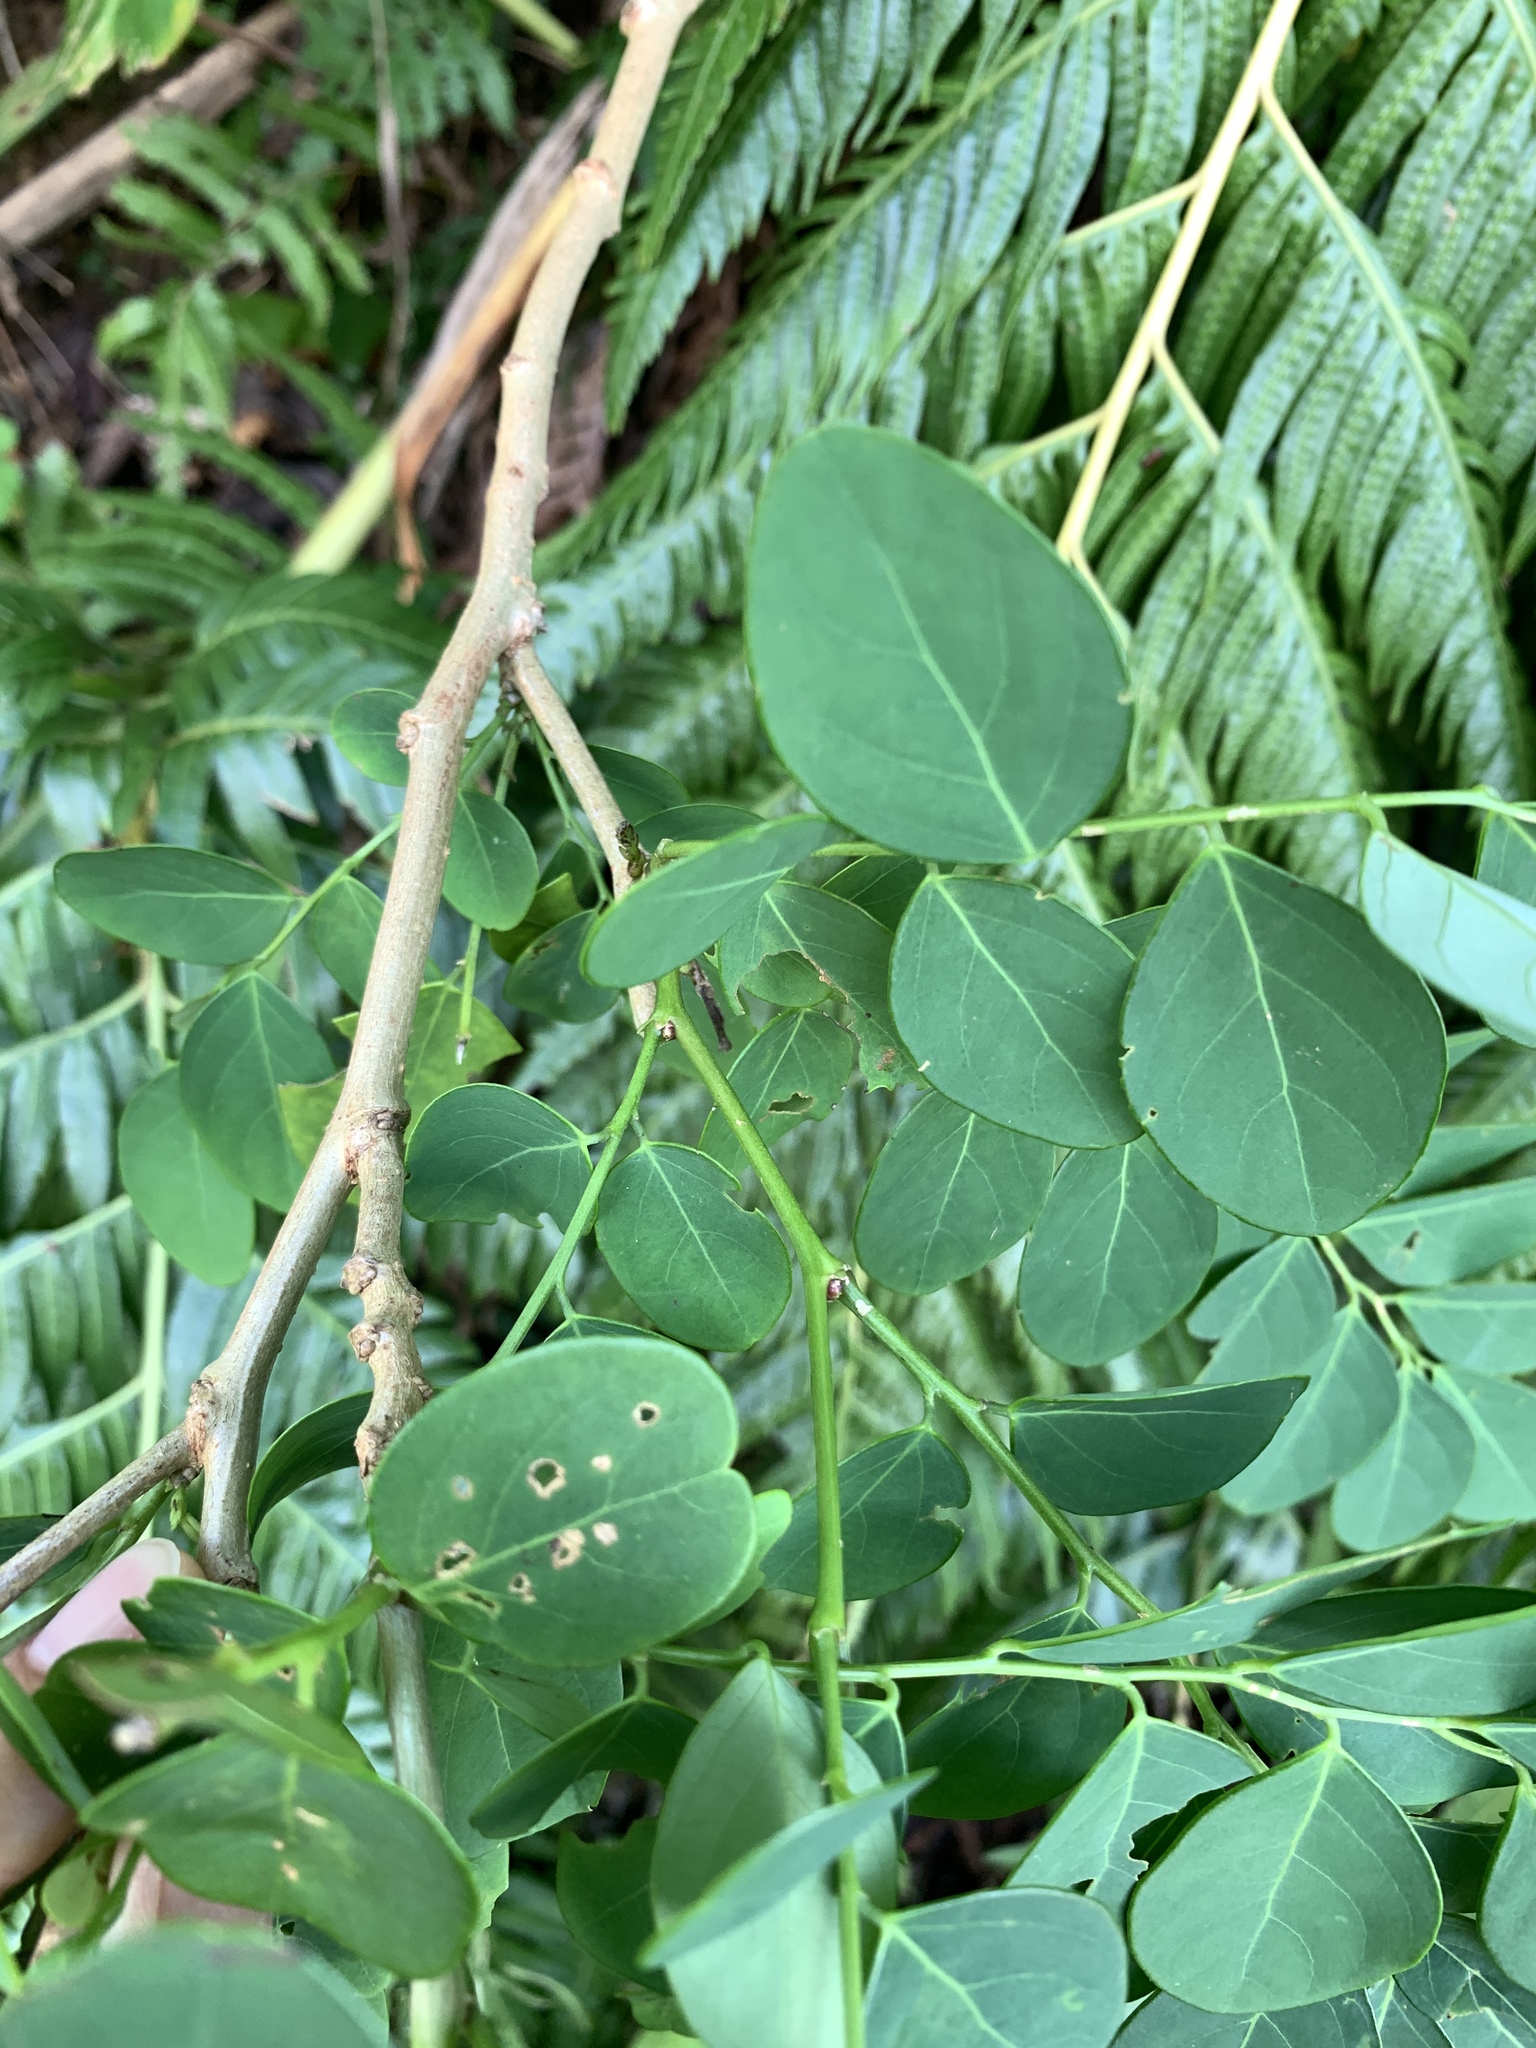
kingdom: Plantae
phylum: Tracheophyta
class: Magnoliopsida
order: Malpighiales
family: Phyllanthaceae
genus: Breynia
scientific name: Breynia vitis-idaea
